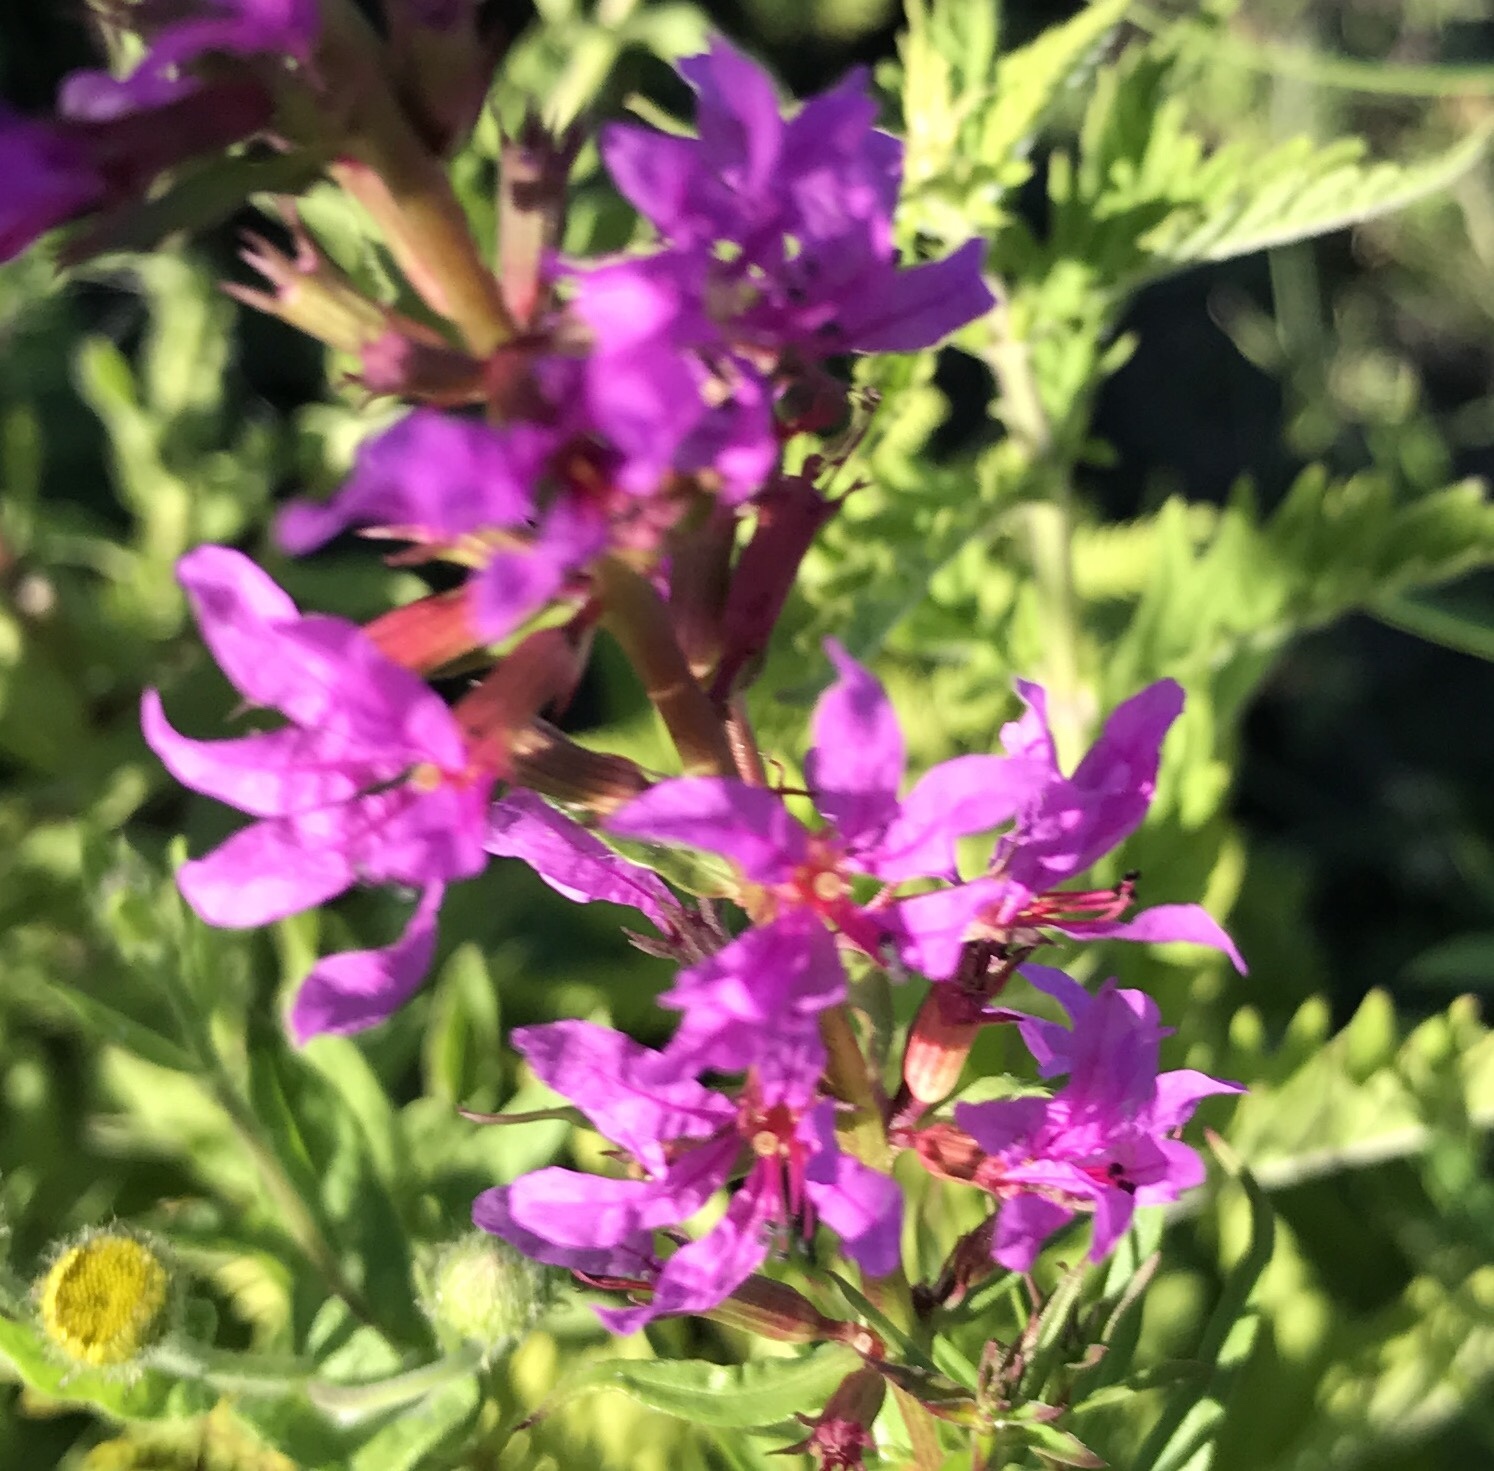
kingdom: Plantae
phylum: Tracheophyta
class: Magnoliopsida
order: Myrtales
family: Lythraceae
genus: Lythrum
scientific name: Lythrum salicaria
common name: Purple loosestrife
